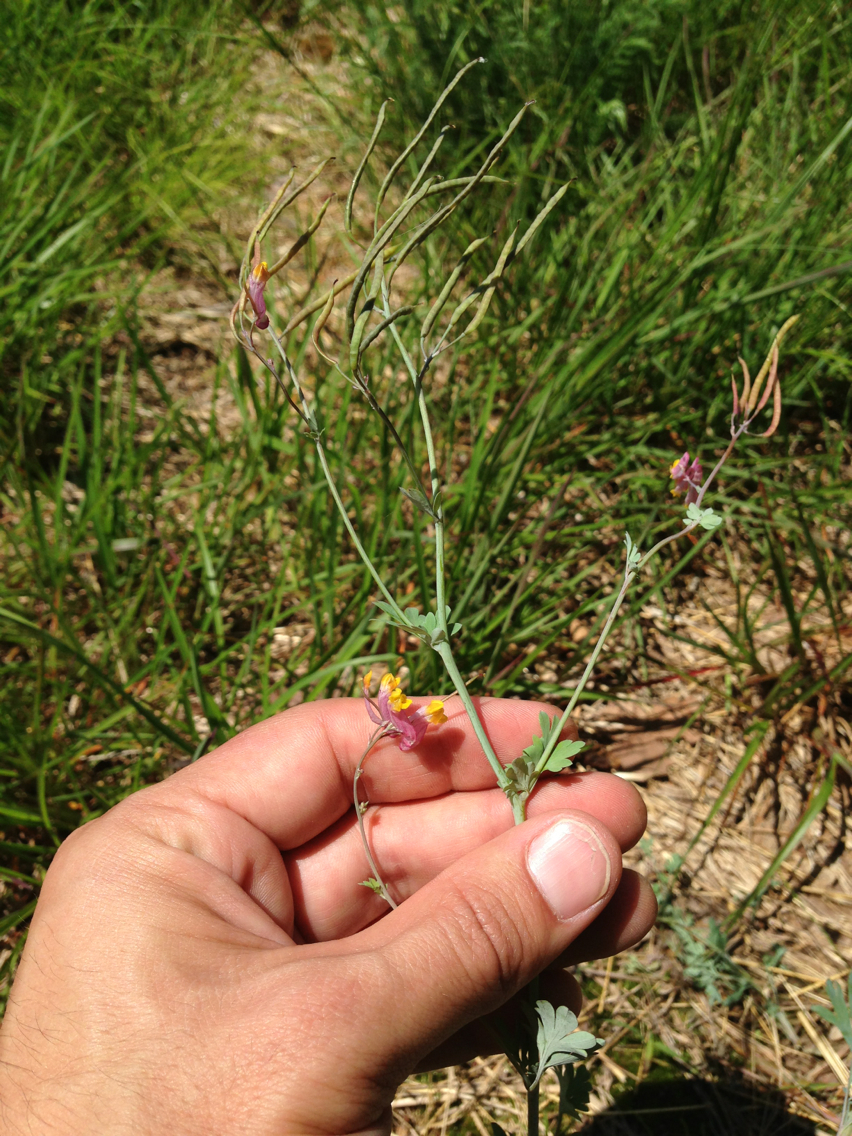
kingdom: Plantae
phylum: Tracheophyta
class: Magnoliopsida
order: Ranunculales
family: Papaveraceae
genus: Capnoides
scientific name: Capnoides sempervirens
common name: Rock harlequin
